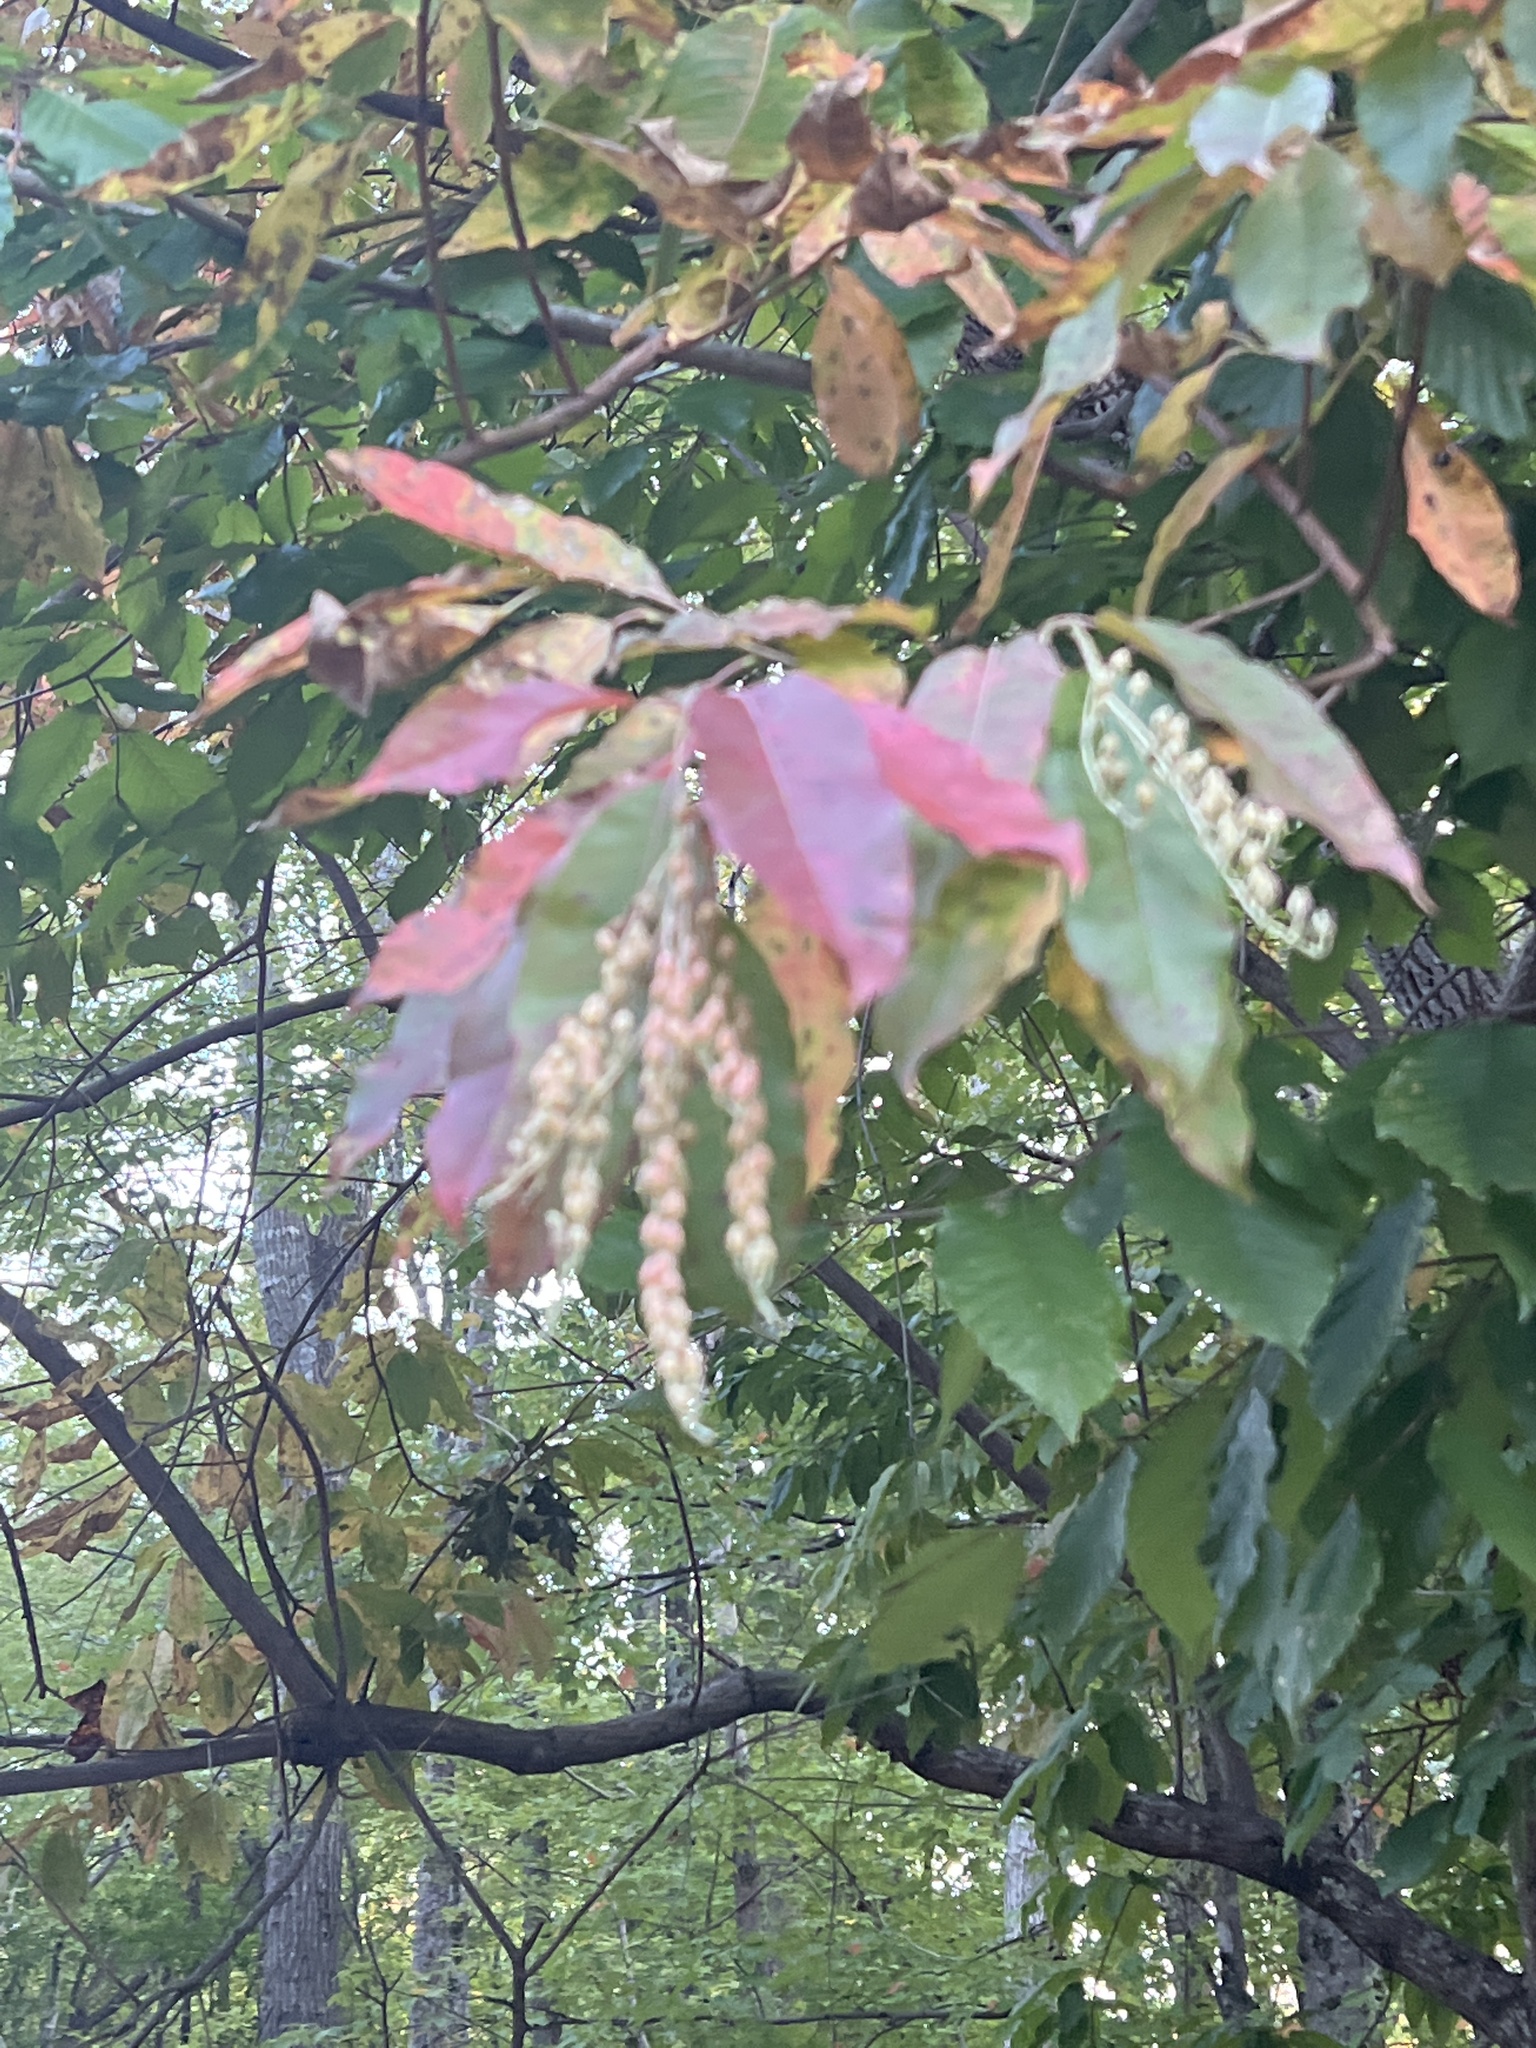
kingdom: Plantae
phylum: Tracheophyta
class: Magnoliopsida
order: Ericales
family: Ericaceae
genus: Oxydendrum
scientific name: Oxydendrum arboreum
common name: Sourwood
